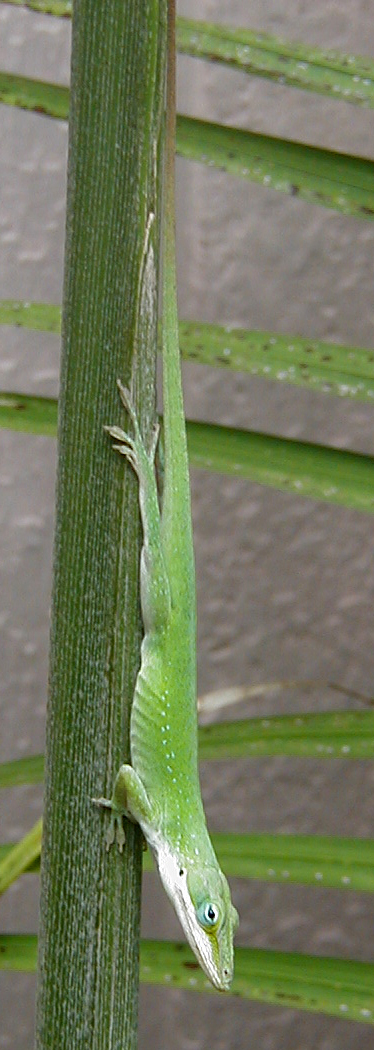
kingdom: Animalia
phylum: Chordata
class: Squamata
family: Dactyloidae
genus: Anolis
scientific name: Anolis carolinensis
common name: Green anole
